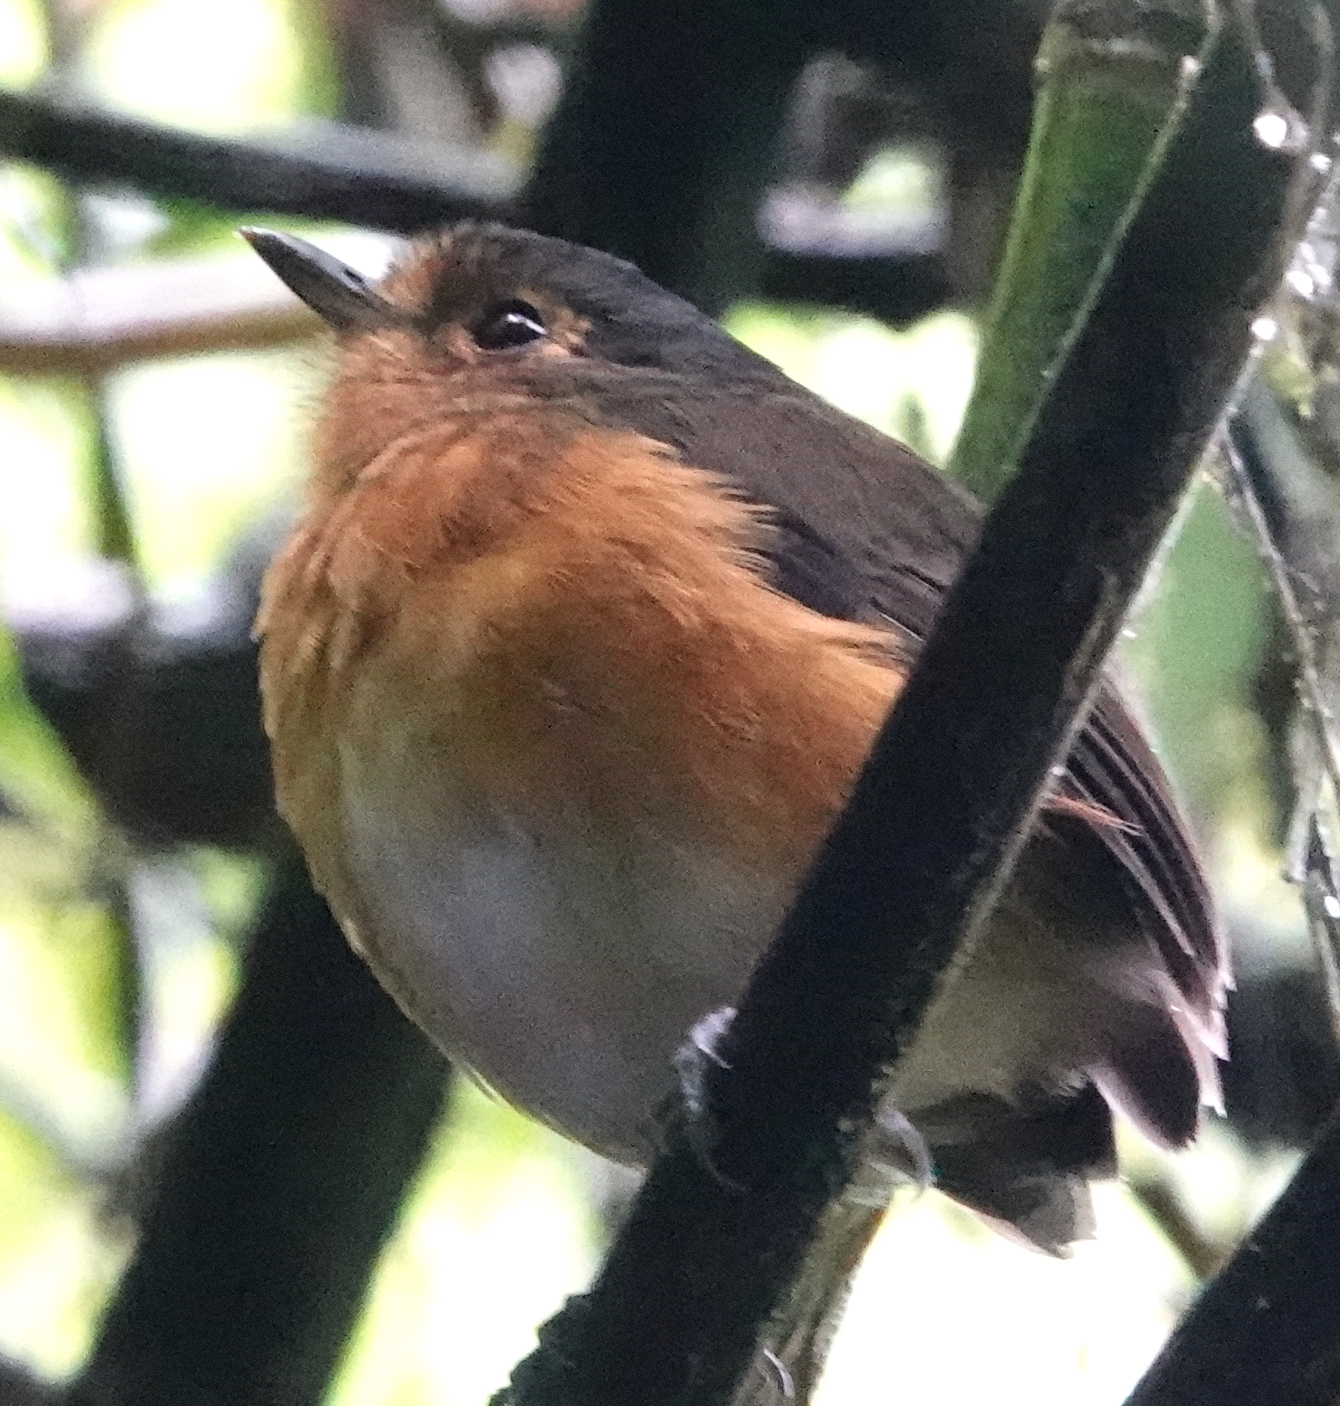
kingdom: Animalia
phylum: Chordata
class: Aves
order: Passeriformes
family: Grallariidae
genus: Grallaricula
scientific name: Grallaricula nana
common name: Slaty-crowned antpitta
